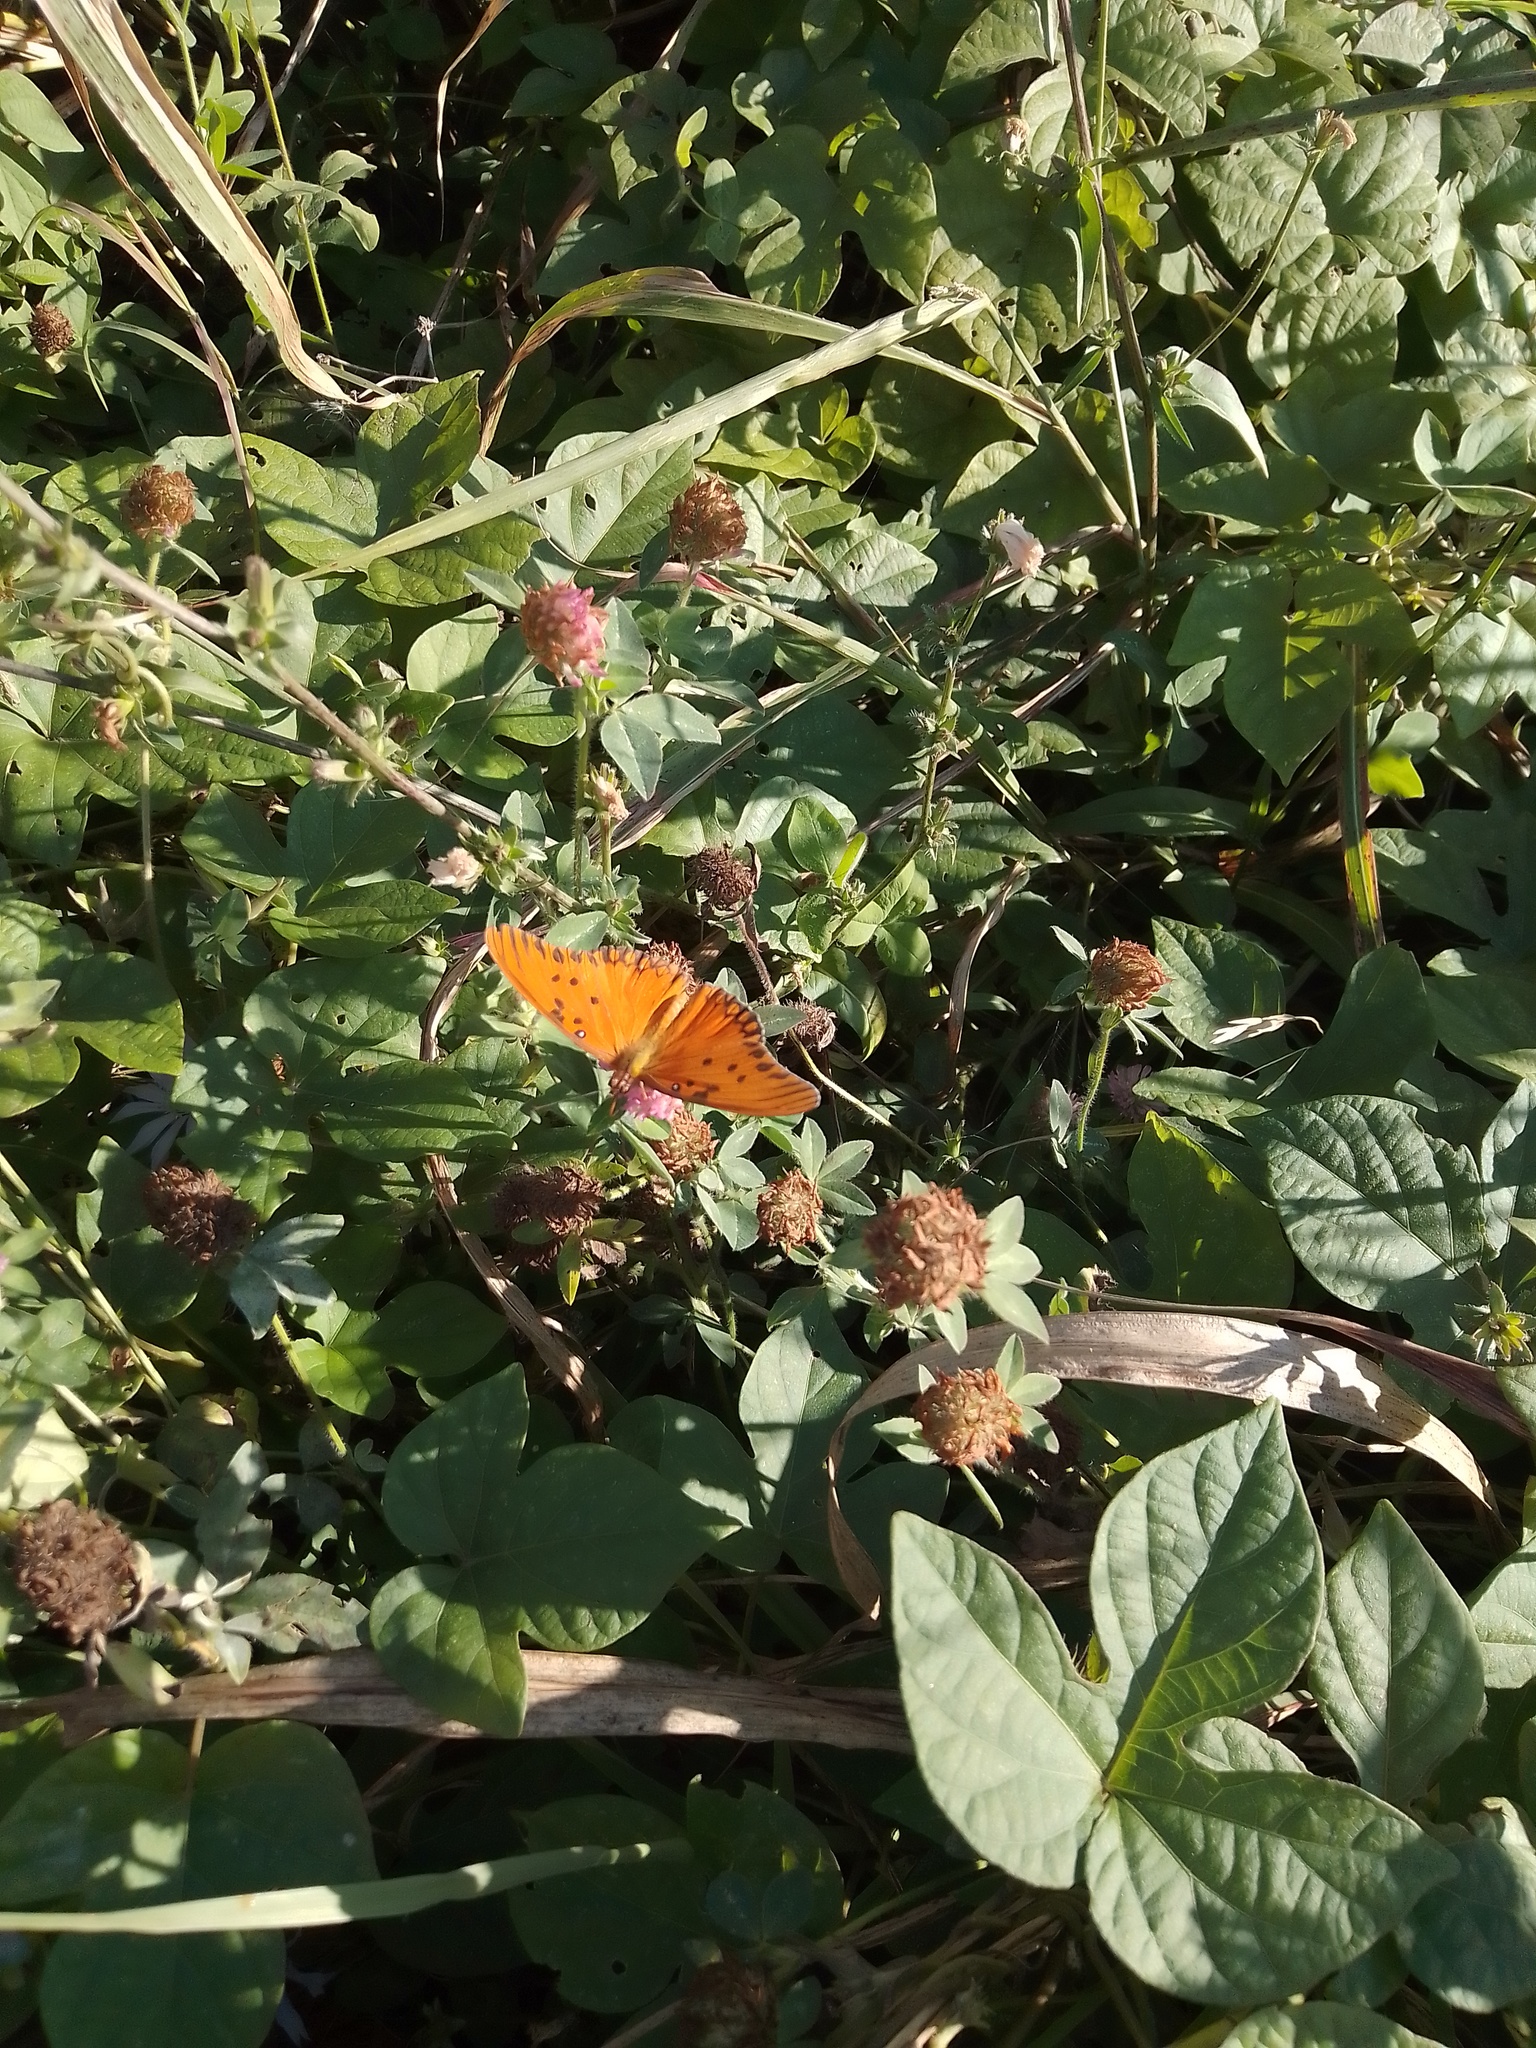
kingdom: Animalia
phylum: Arthropoda
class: Insecta
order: Lepidoptera
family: Nymphalidae
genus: Dione
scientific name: Dione vanillae
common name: Gulf fritillary
